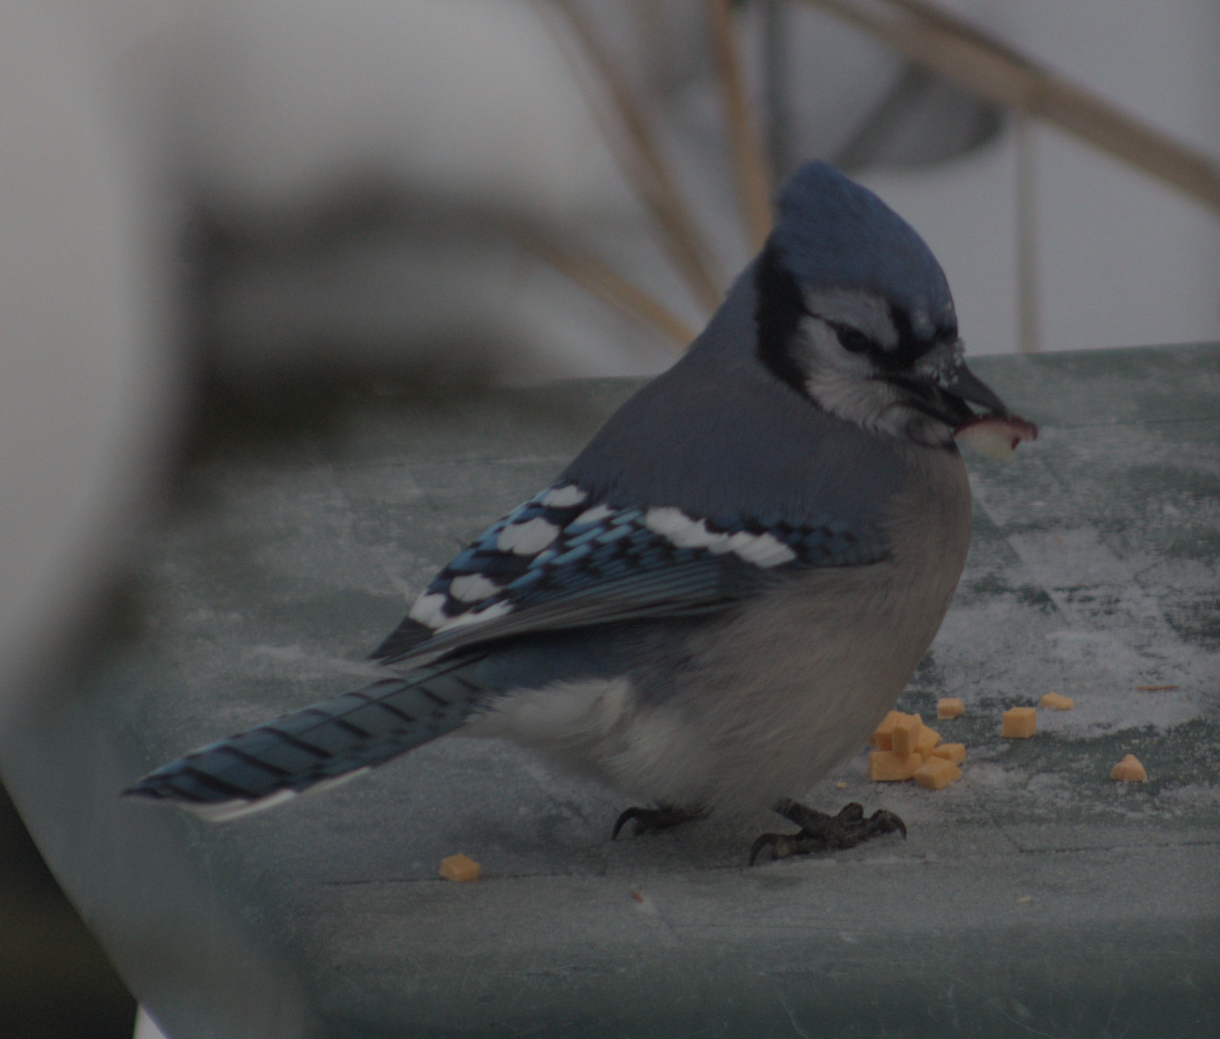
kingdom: Animalia
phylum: Chordata
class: Aves
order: Passeriformes
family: Corvidae
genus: Cyanocitta
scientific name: Cyanocitta cristata
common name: Blue jay
